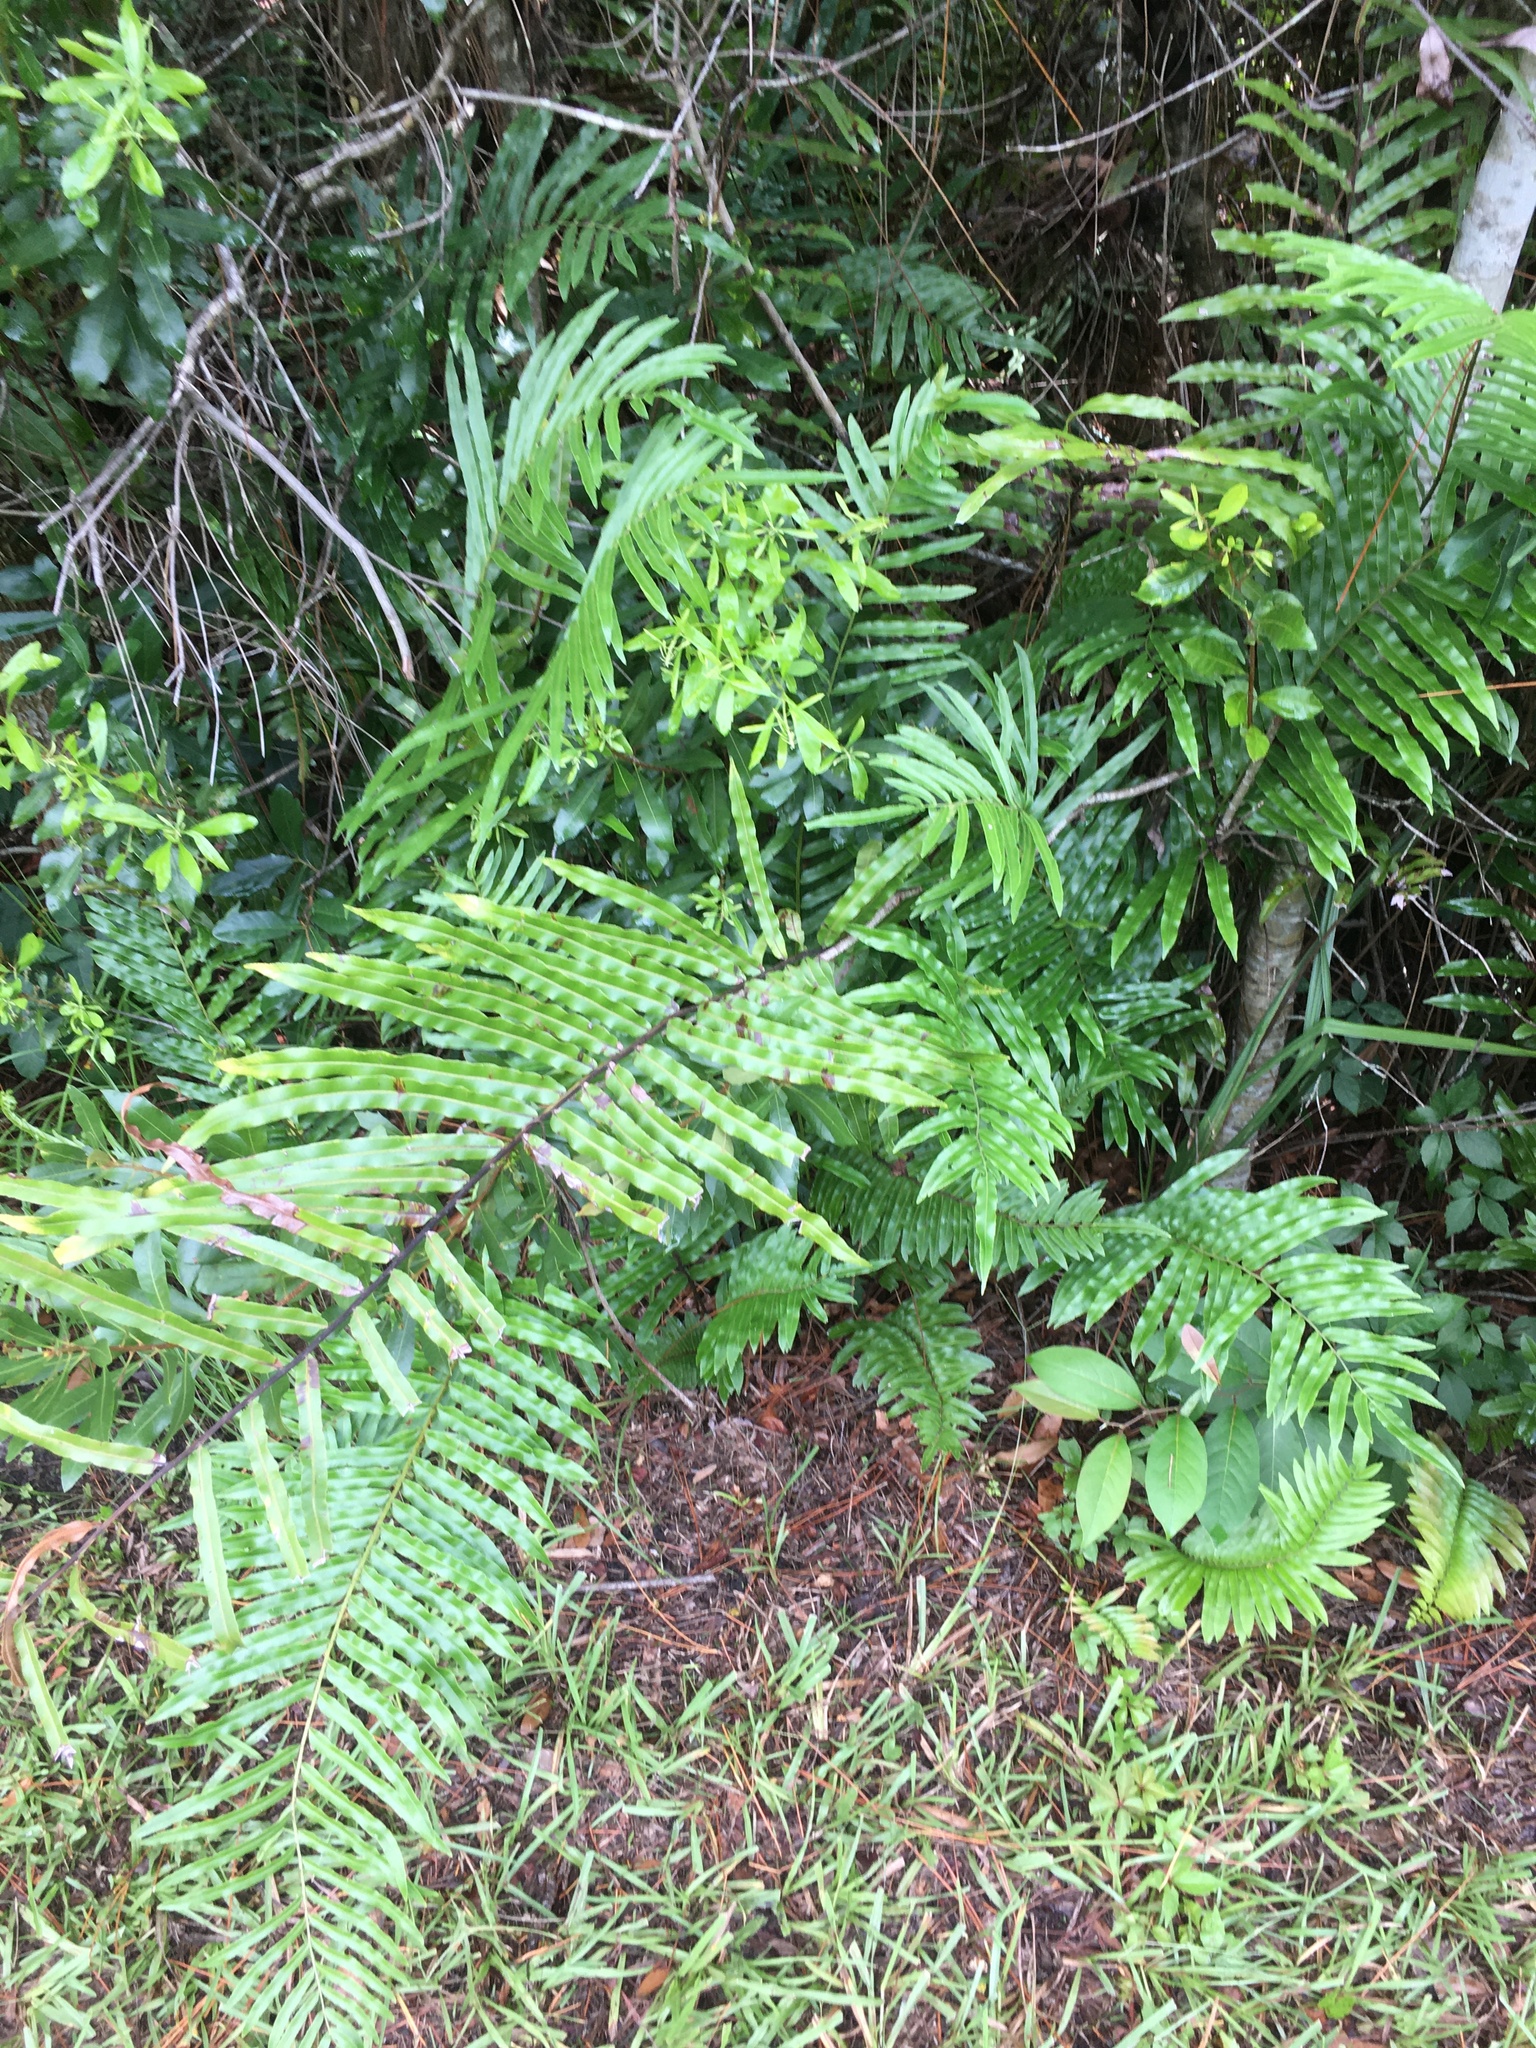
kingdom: Plantae
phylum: Tracheophyta
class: Polypodiopsida
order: Polypodiales
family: Nephrolepidaceae
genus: Nephrolepis
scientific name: Nephrolepis biserrata
